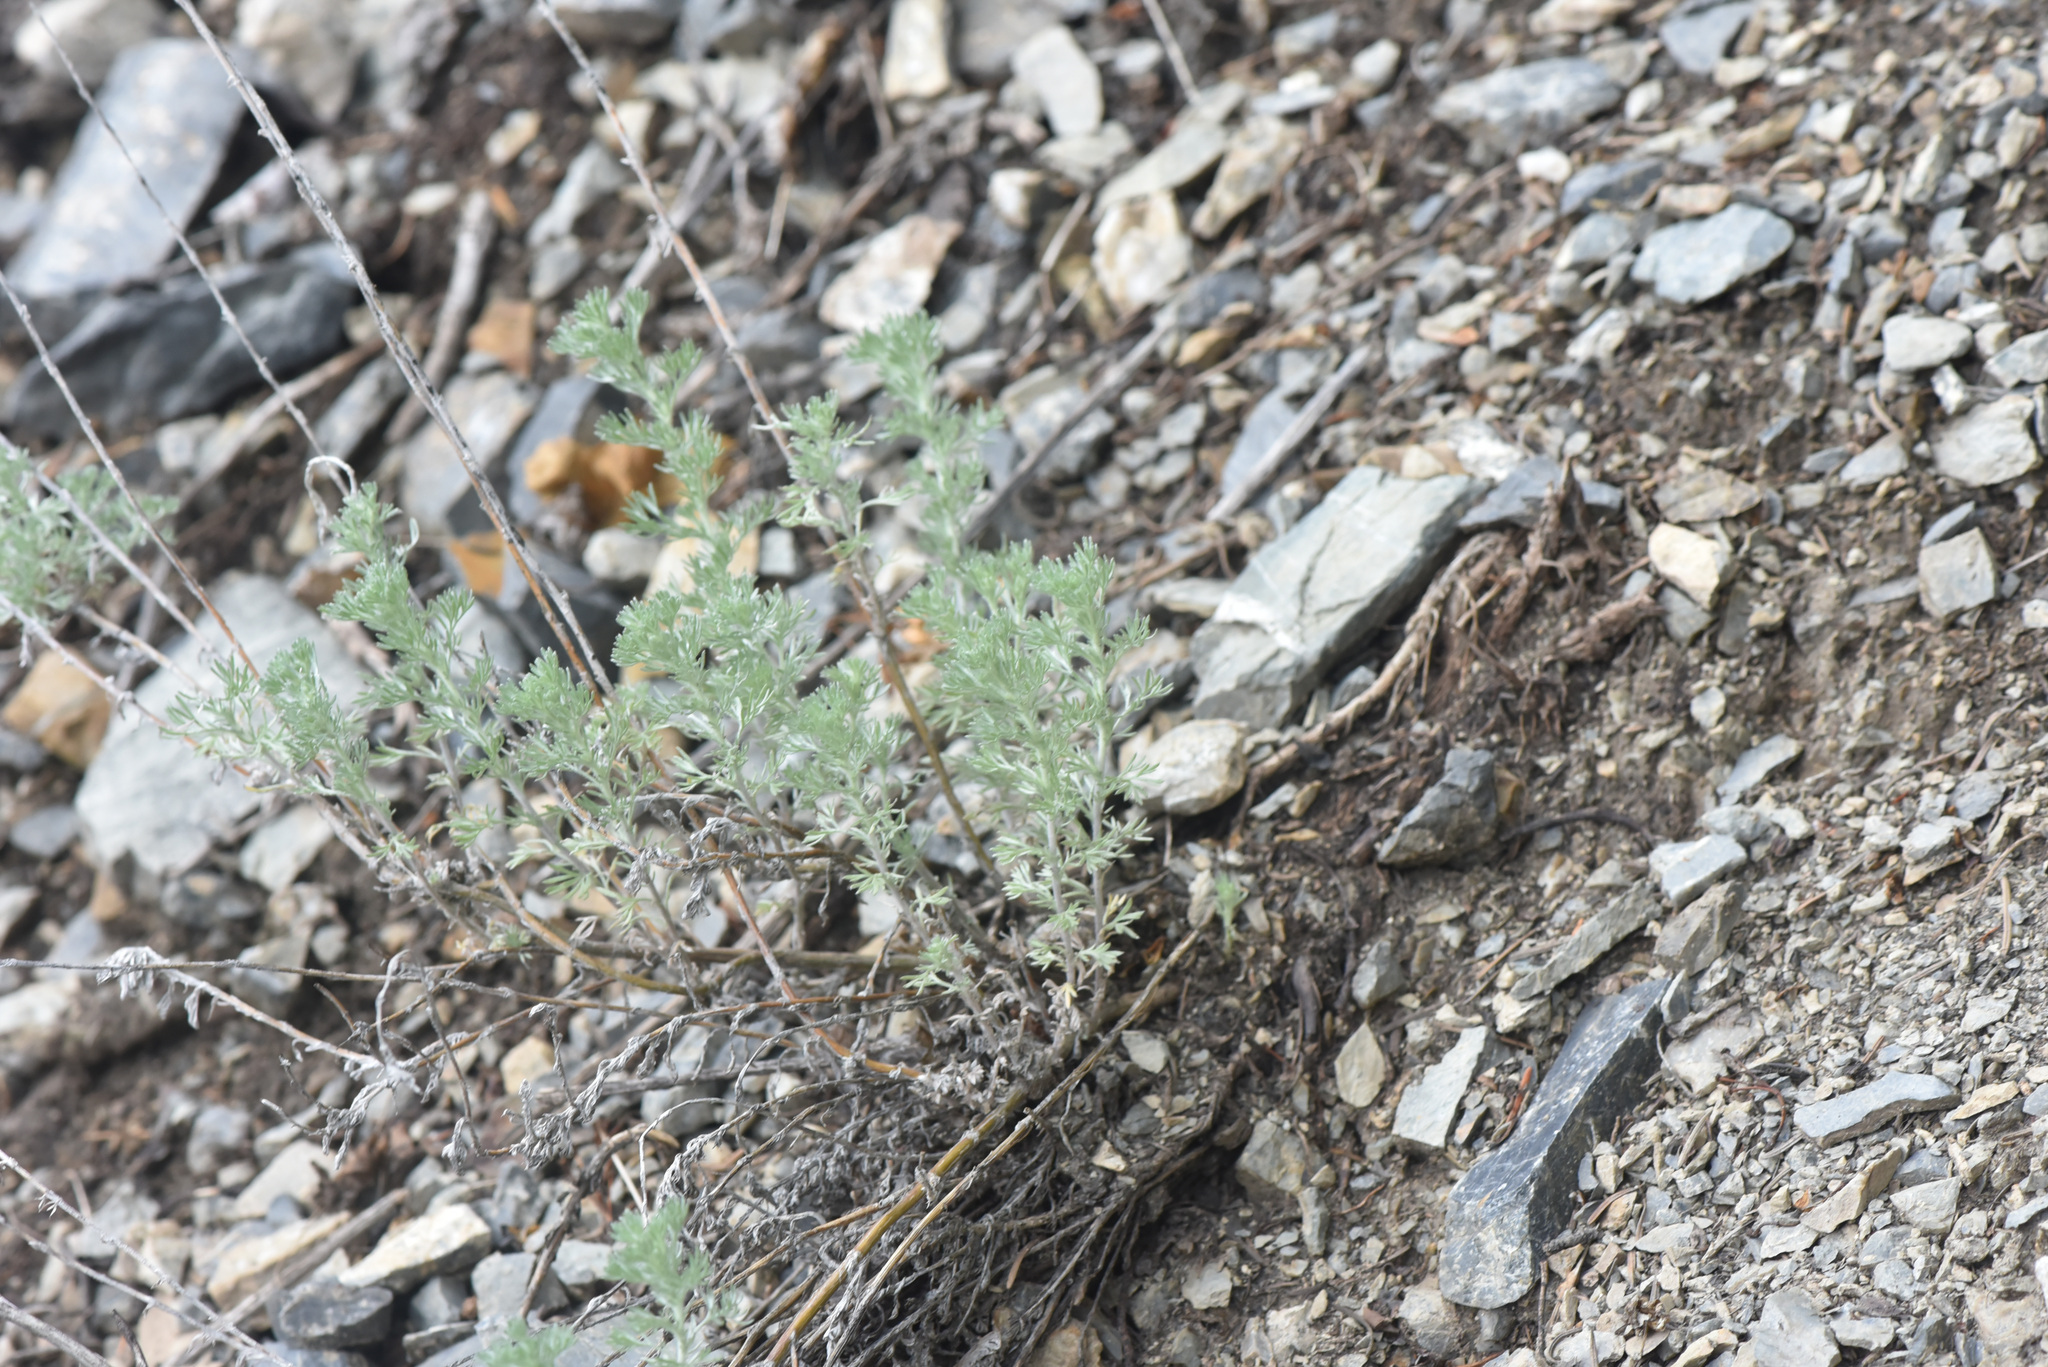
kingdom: Plantae
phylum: Tracheophyta
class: Magnoliopsida
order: Asterales
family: Asteraceae
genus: Artemisia
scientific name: Artemisia frigida
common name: Prairie sagewort
